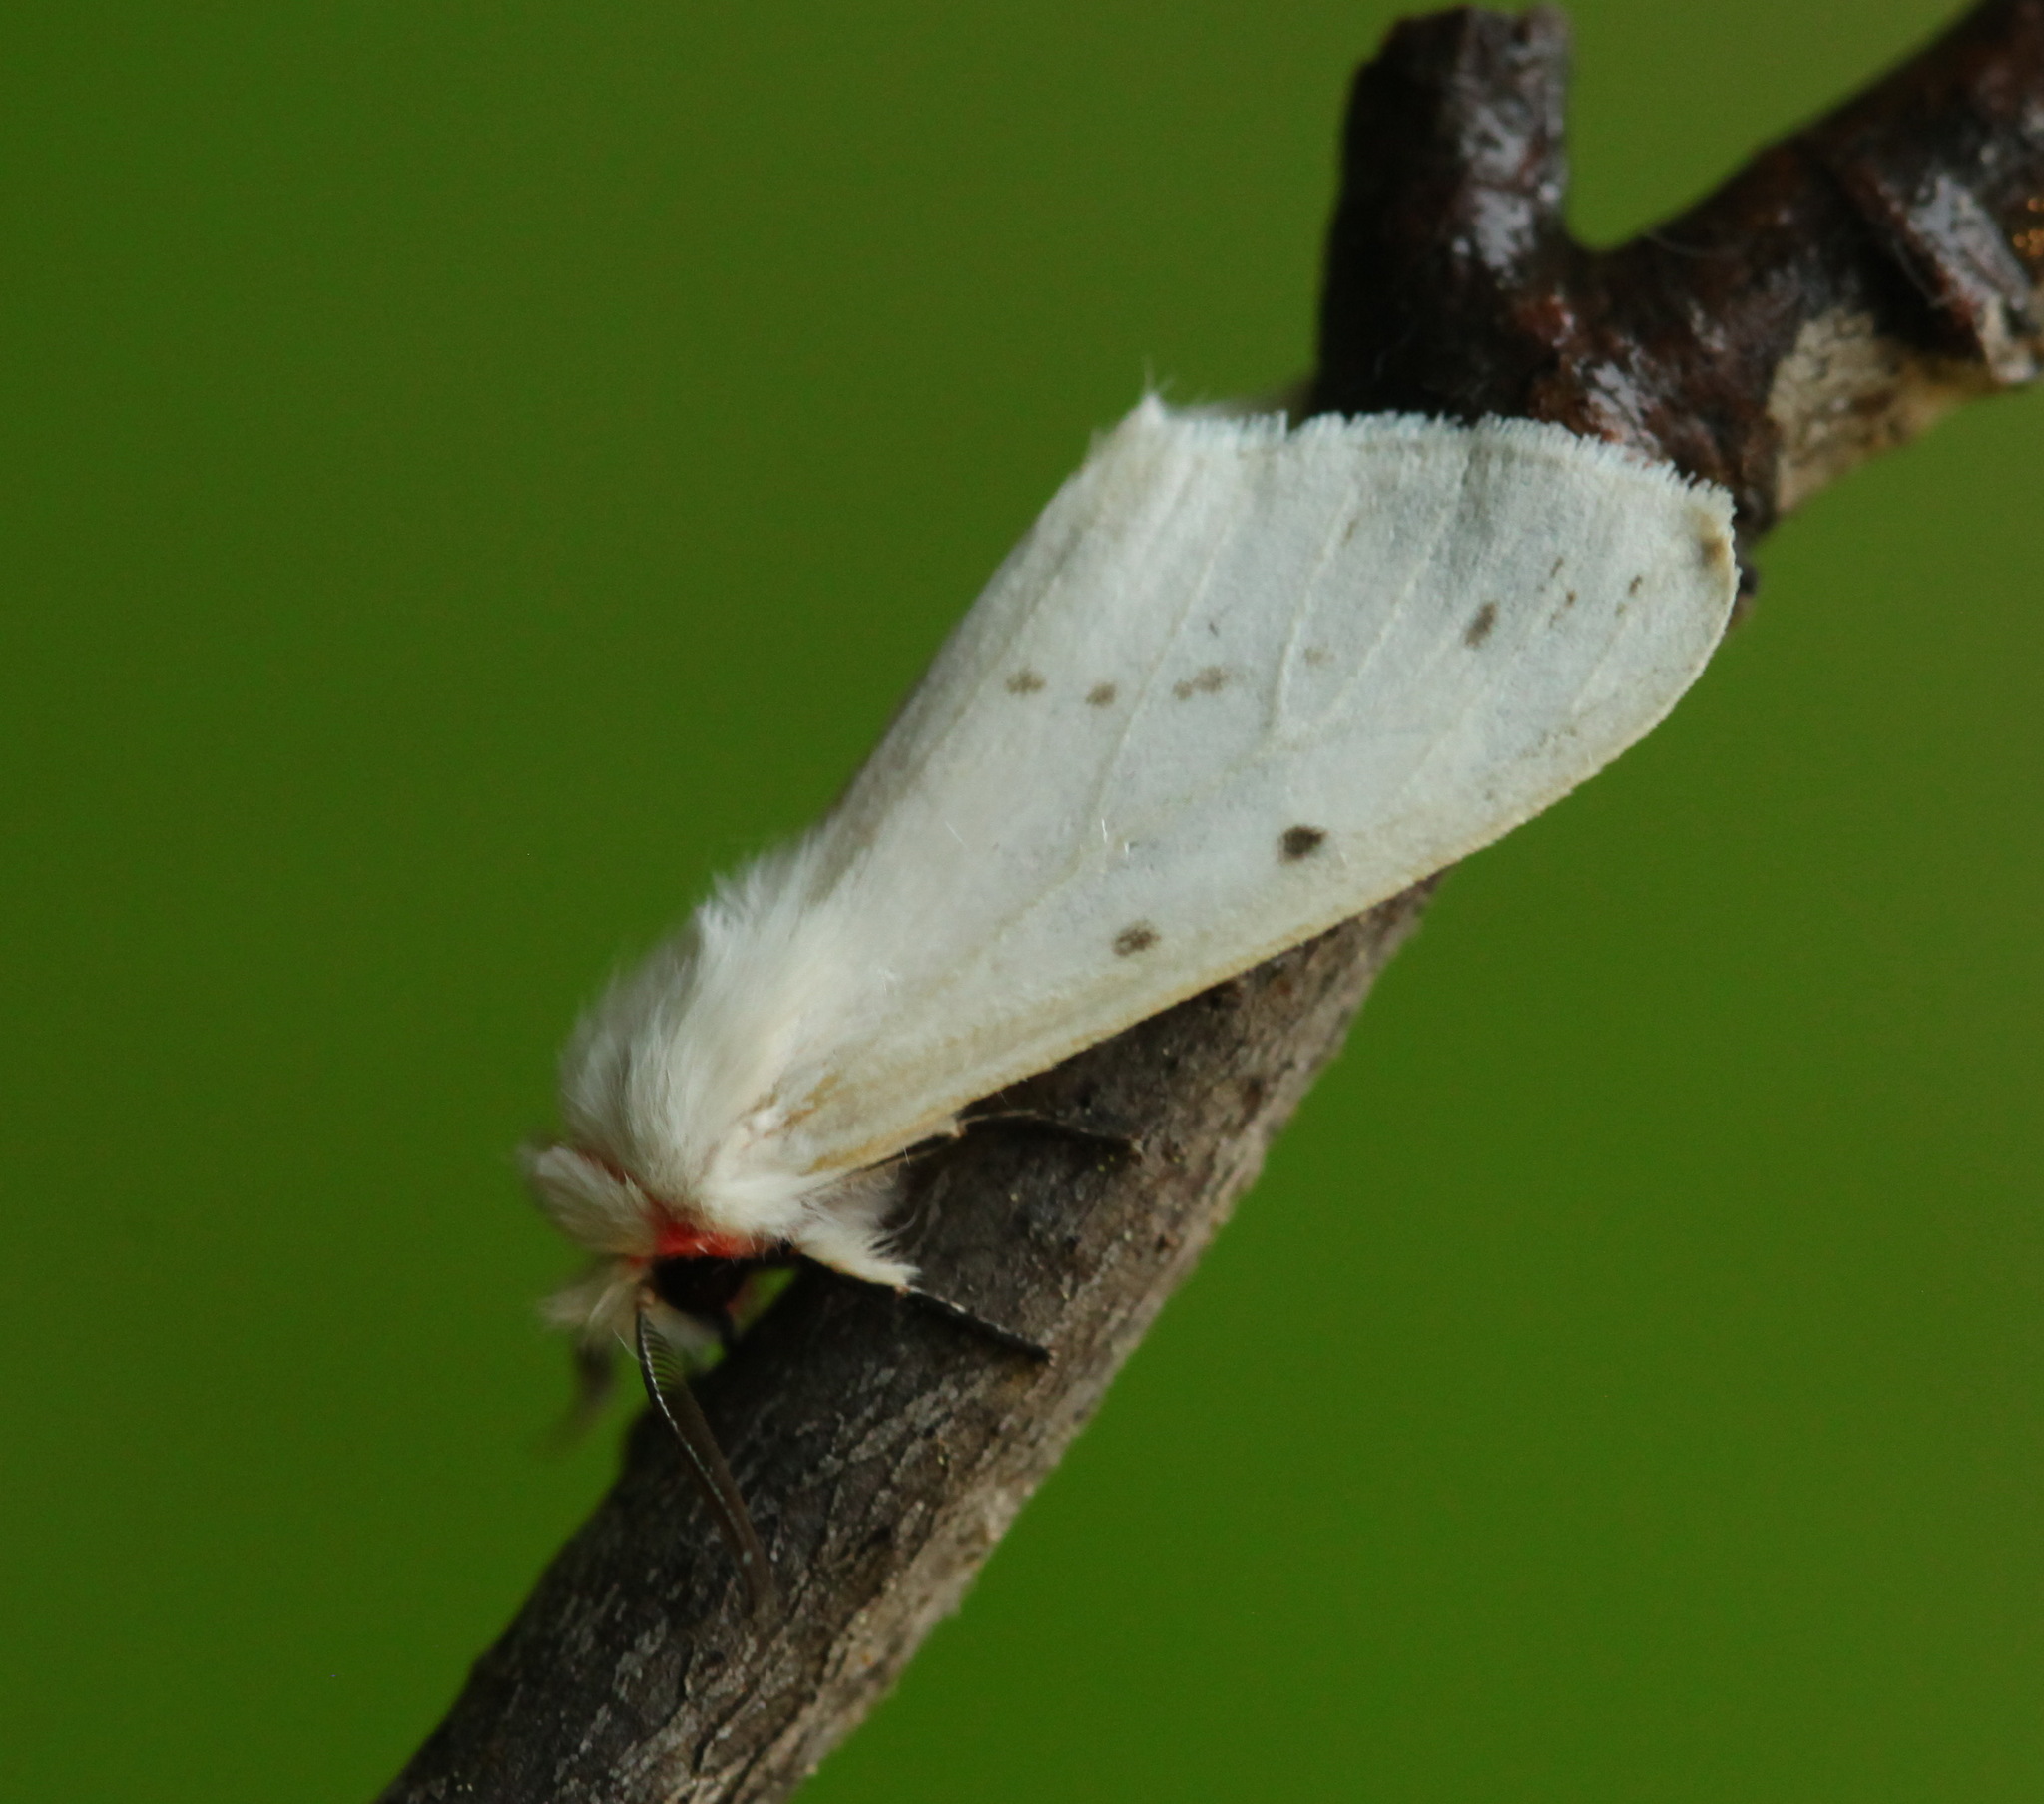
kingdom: Animalia
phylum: Arthropoda
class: Insecta
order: Lepidoptera
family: Erebidae
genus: Lemyra
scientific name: Lemyra boghaika
